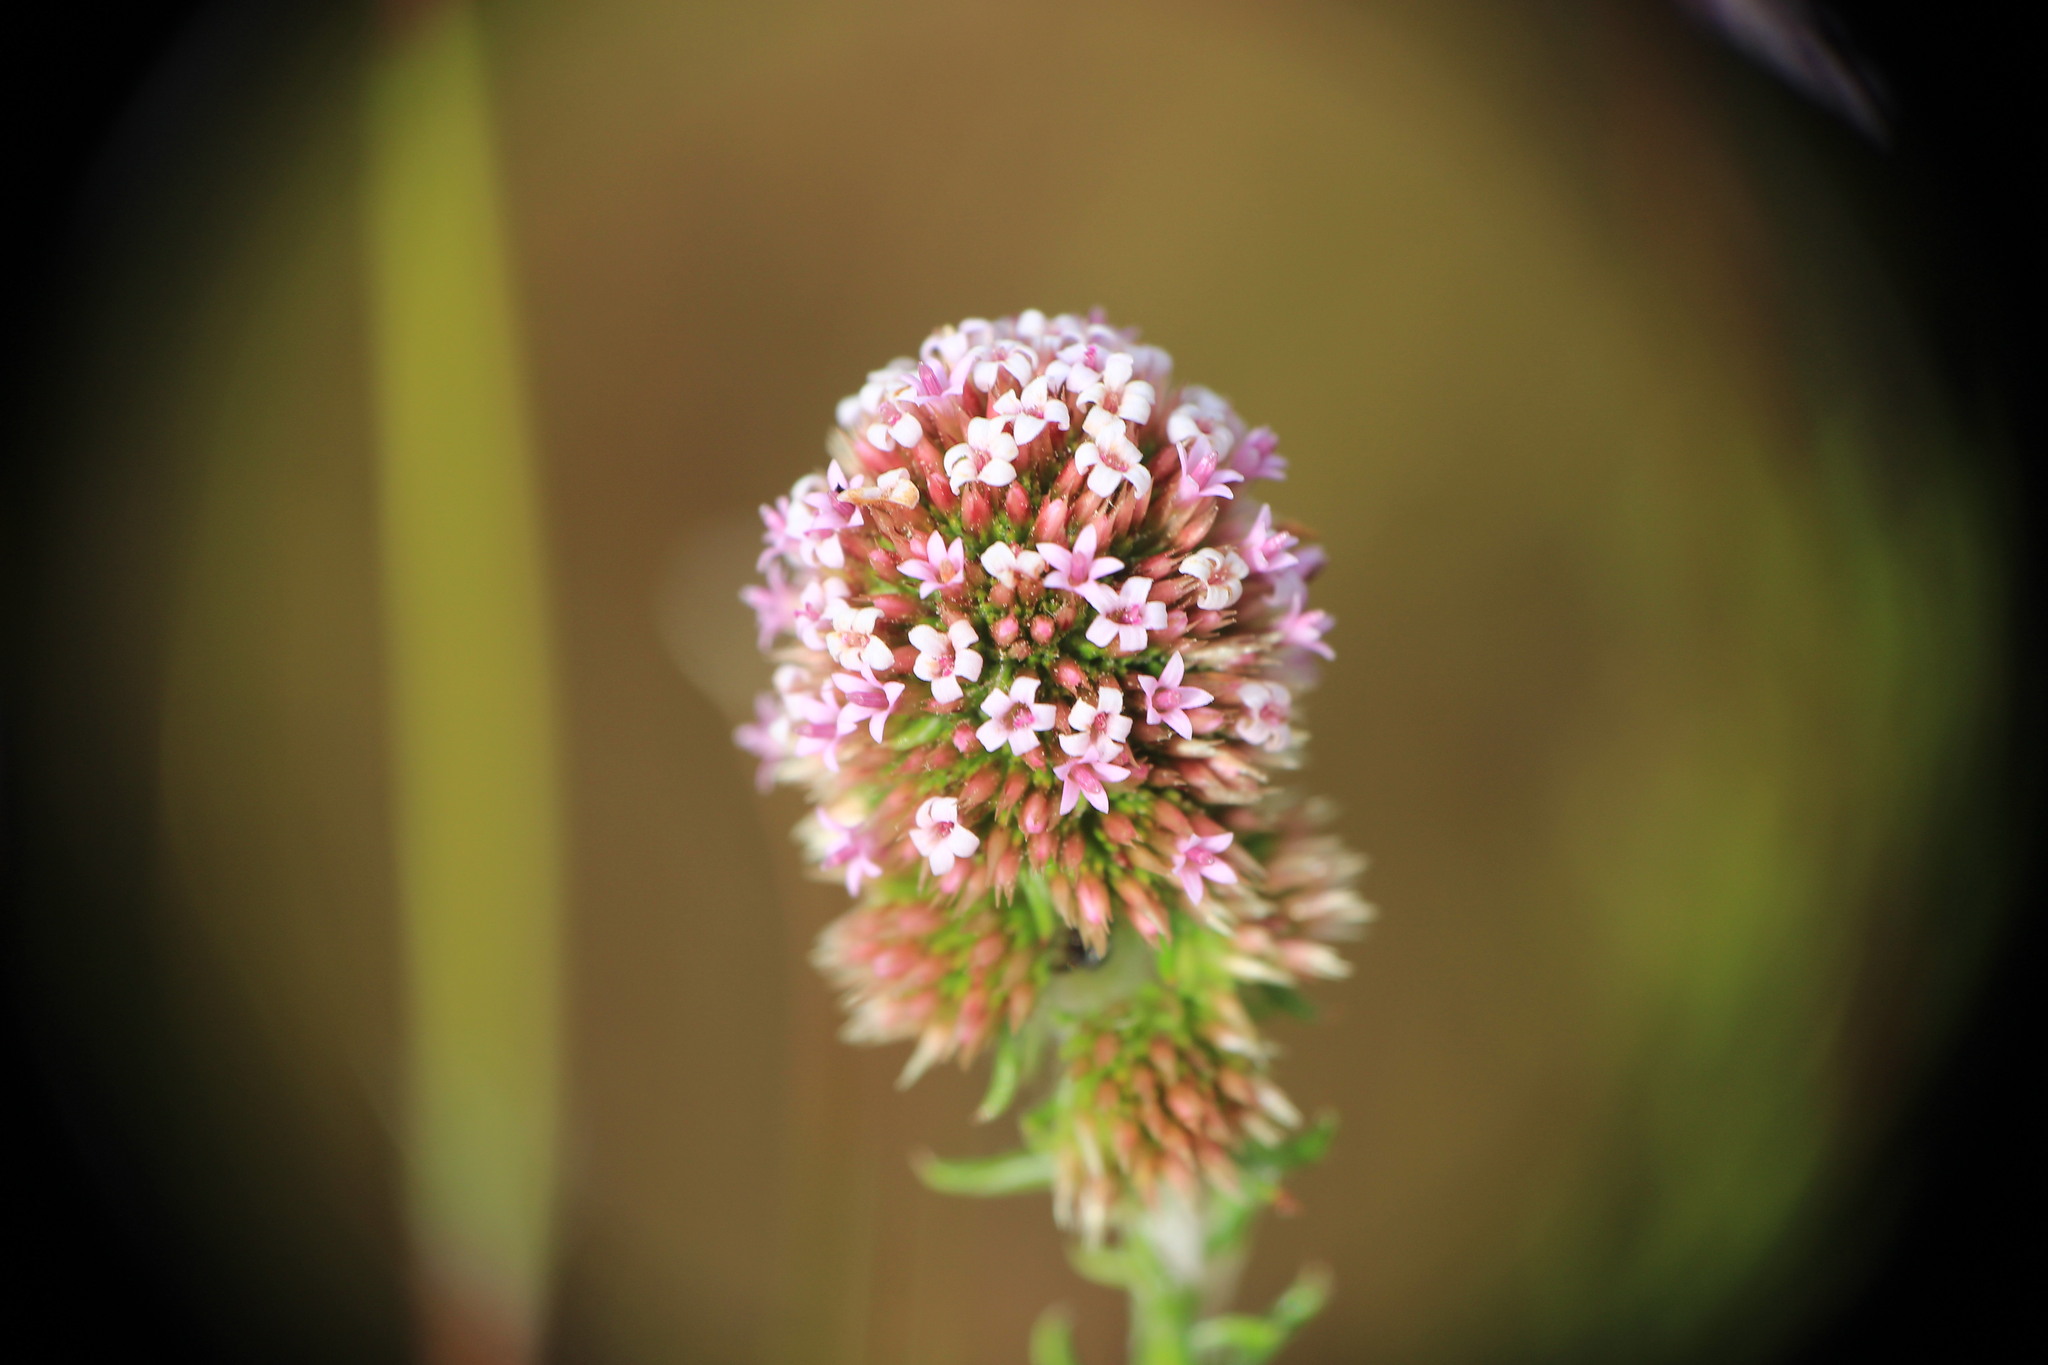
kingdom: Plantae
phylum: Tracheophyta
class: Magnoliopsida
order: Asterales
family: Asteraceae
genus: Stoebe
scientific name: Stoebe capitata
